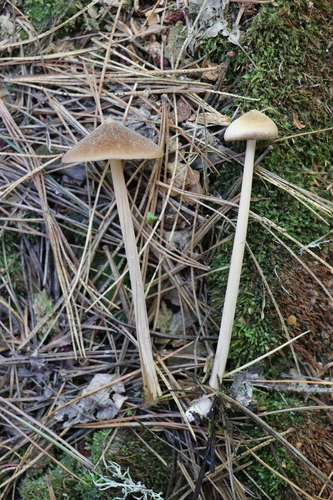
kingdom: Fungi
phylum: Basidiomycota
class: Agaricomycetes
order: Agaricales
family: Entolomataceae
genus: Entoloma
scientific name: Entoloma lanuginosipes
